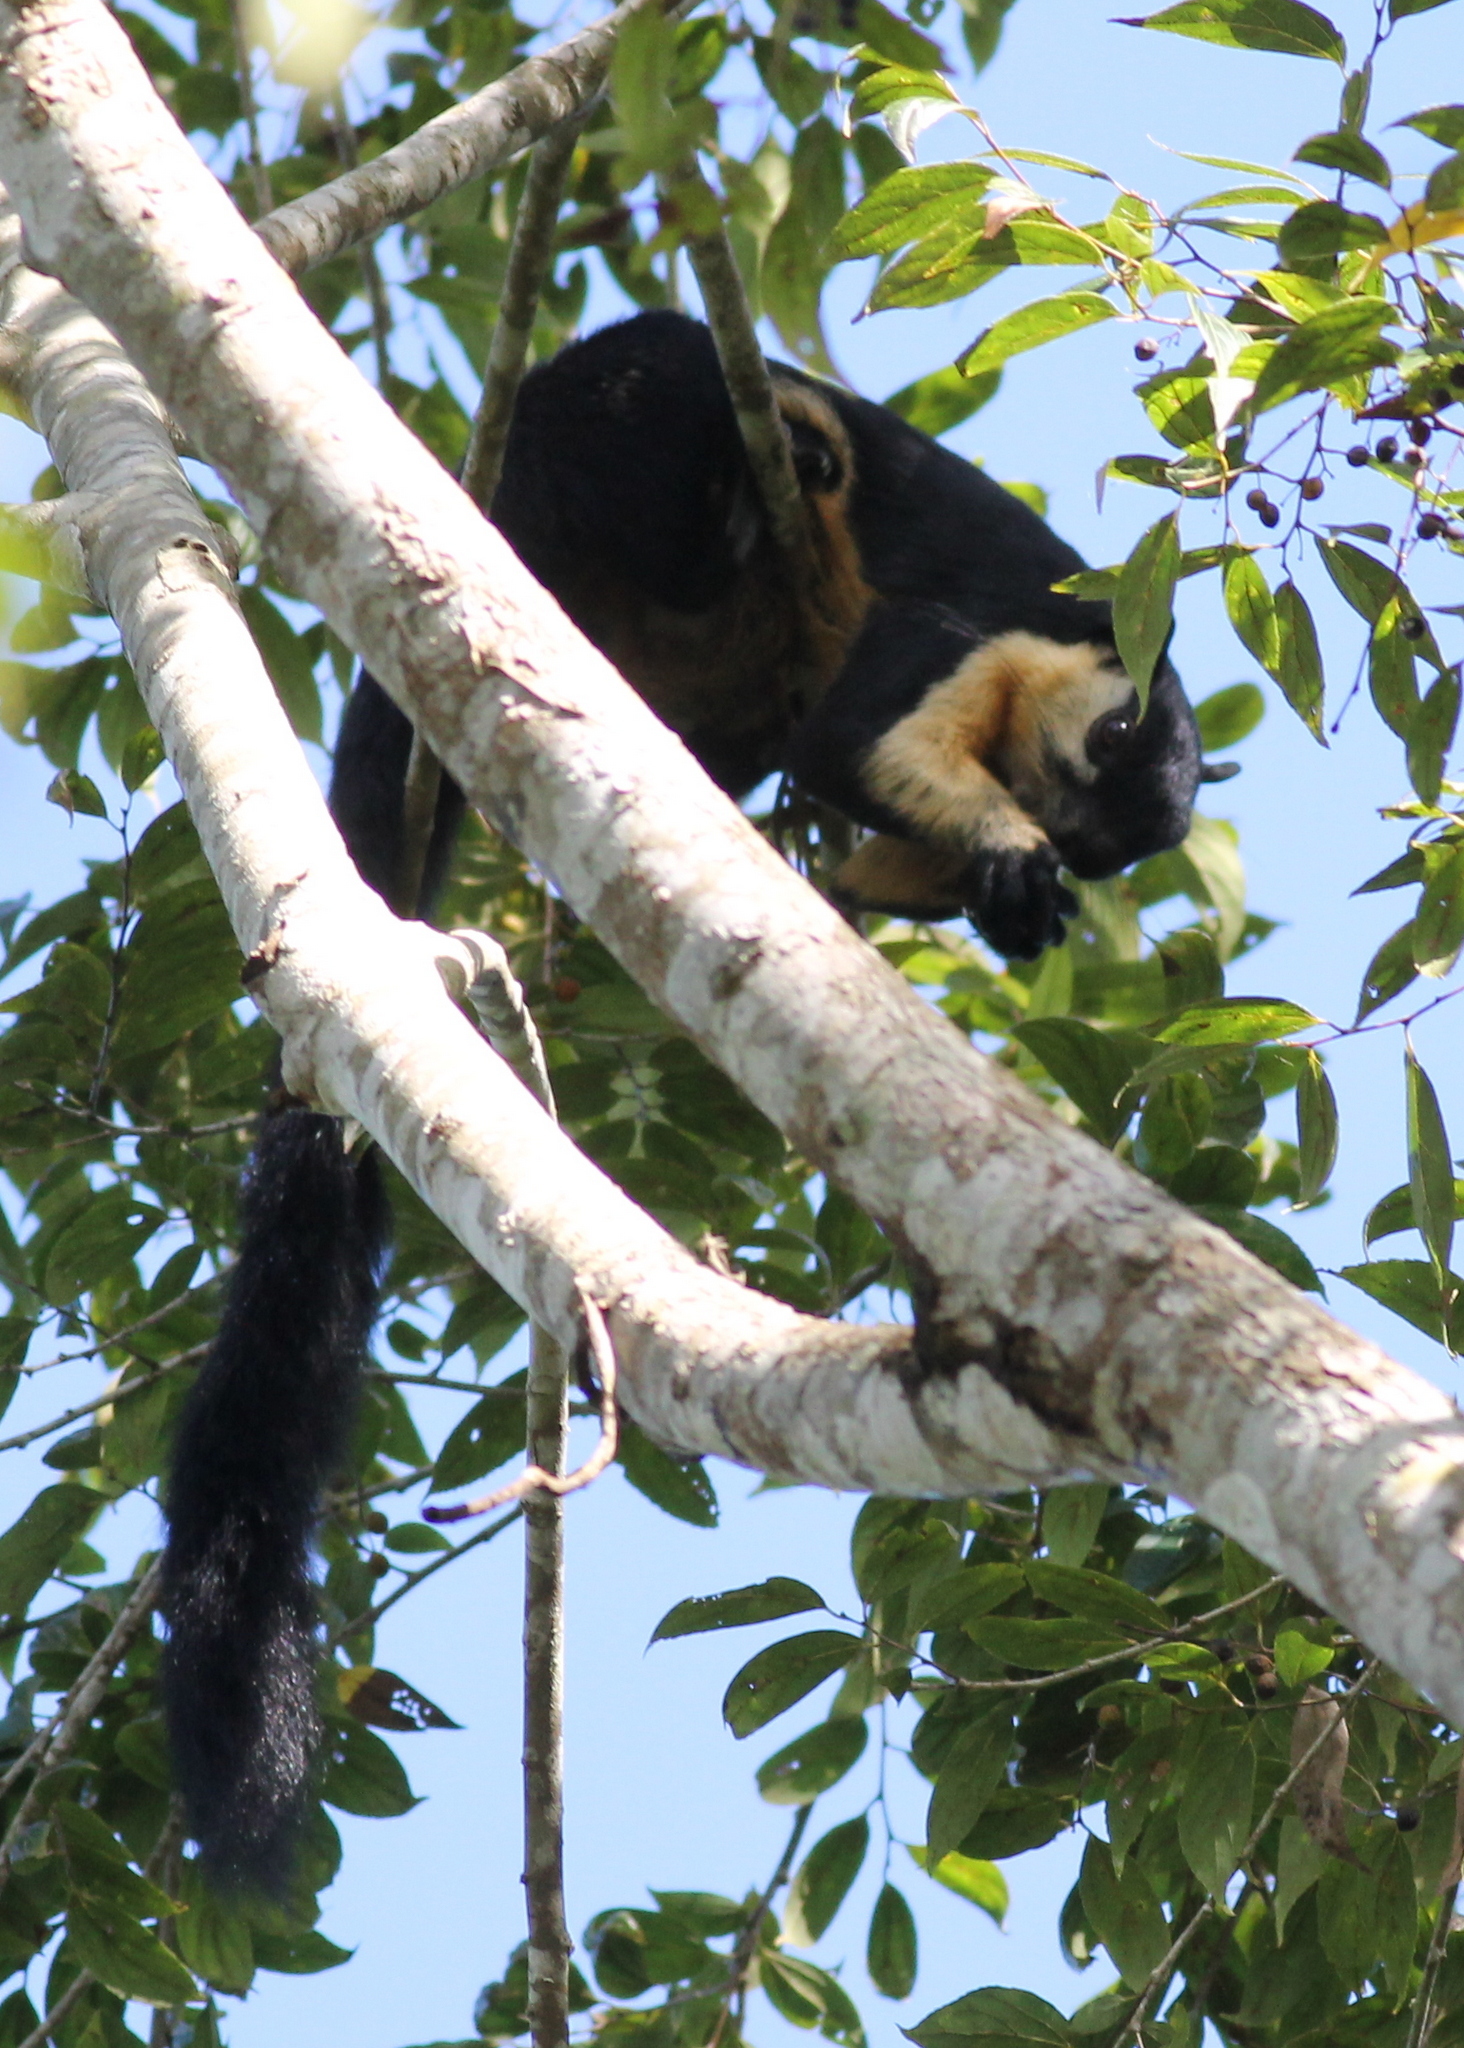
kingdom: Animalia
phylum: Chordata
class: Mammalia
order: Rodentia
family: Sciuridae
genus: Ratufa
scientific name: Ratufa bicolor
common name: Black giant squirrel
